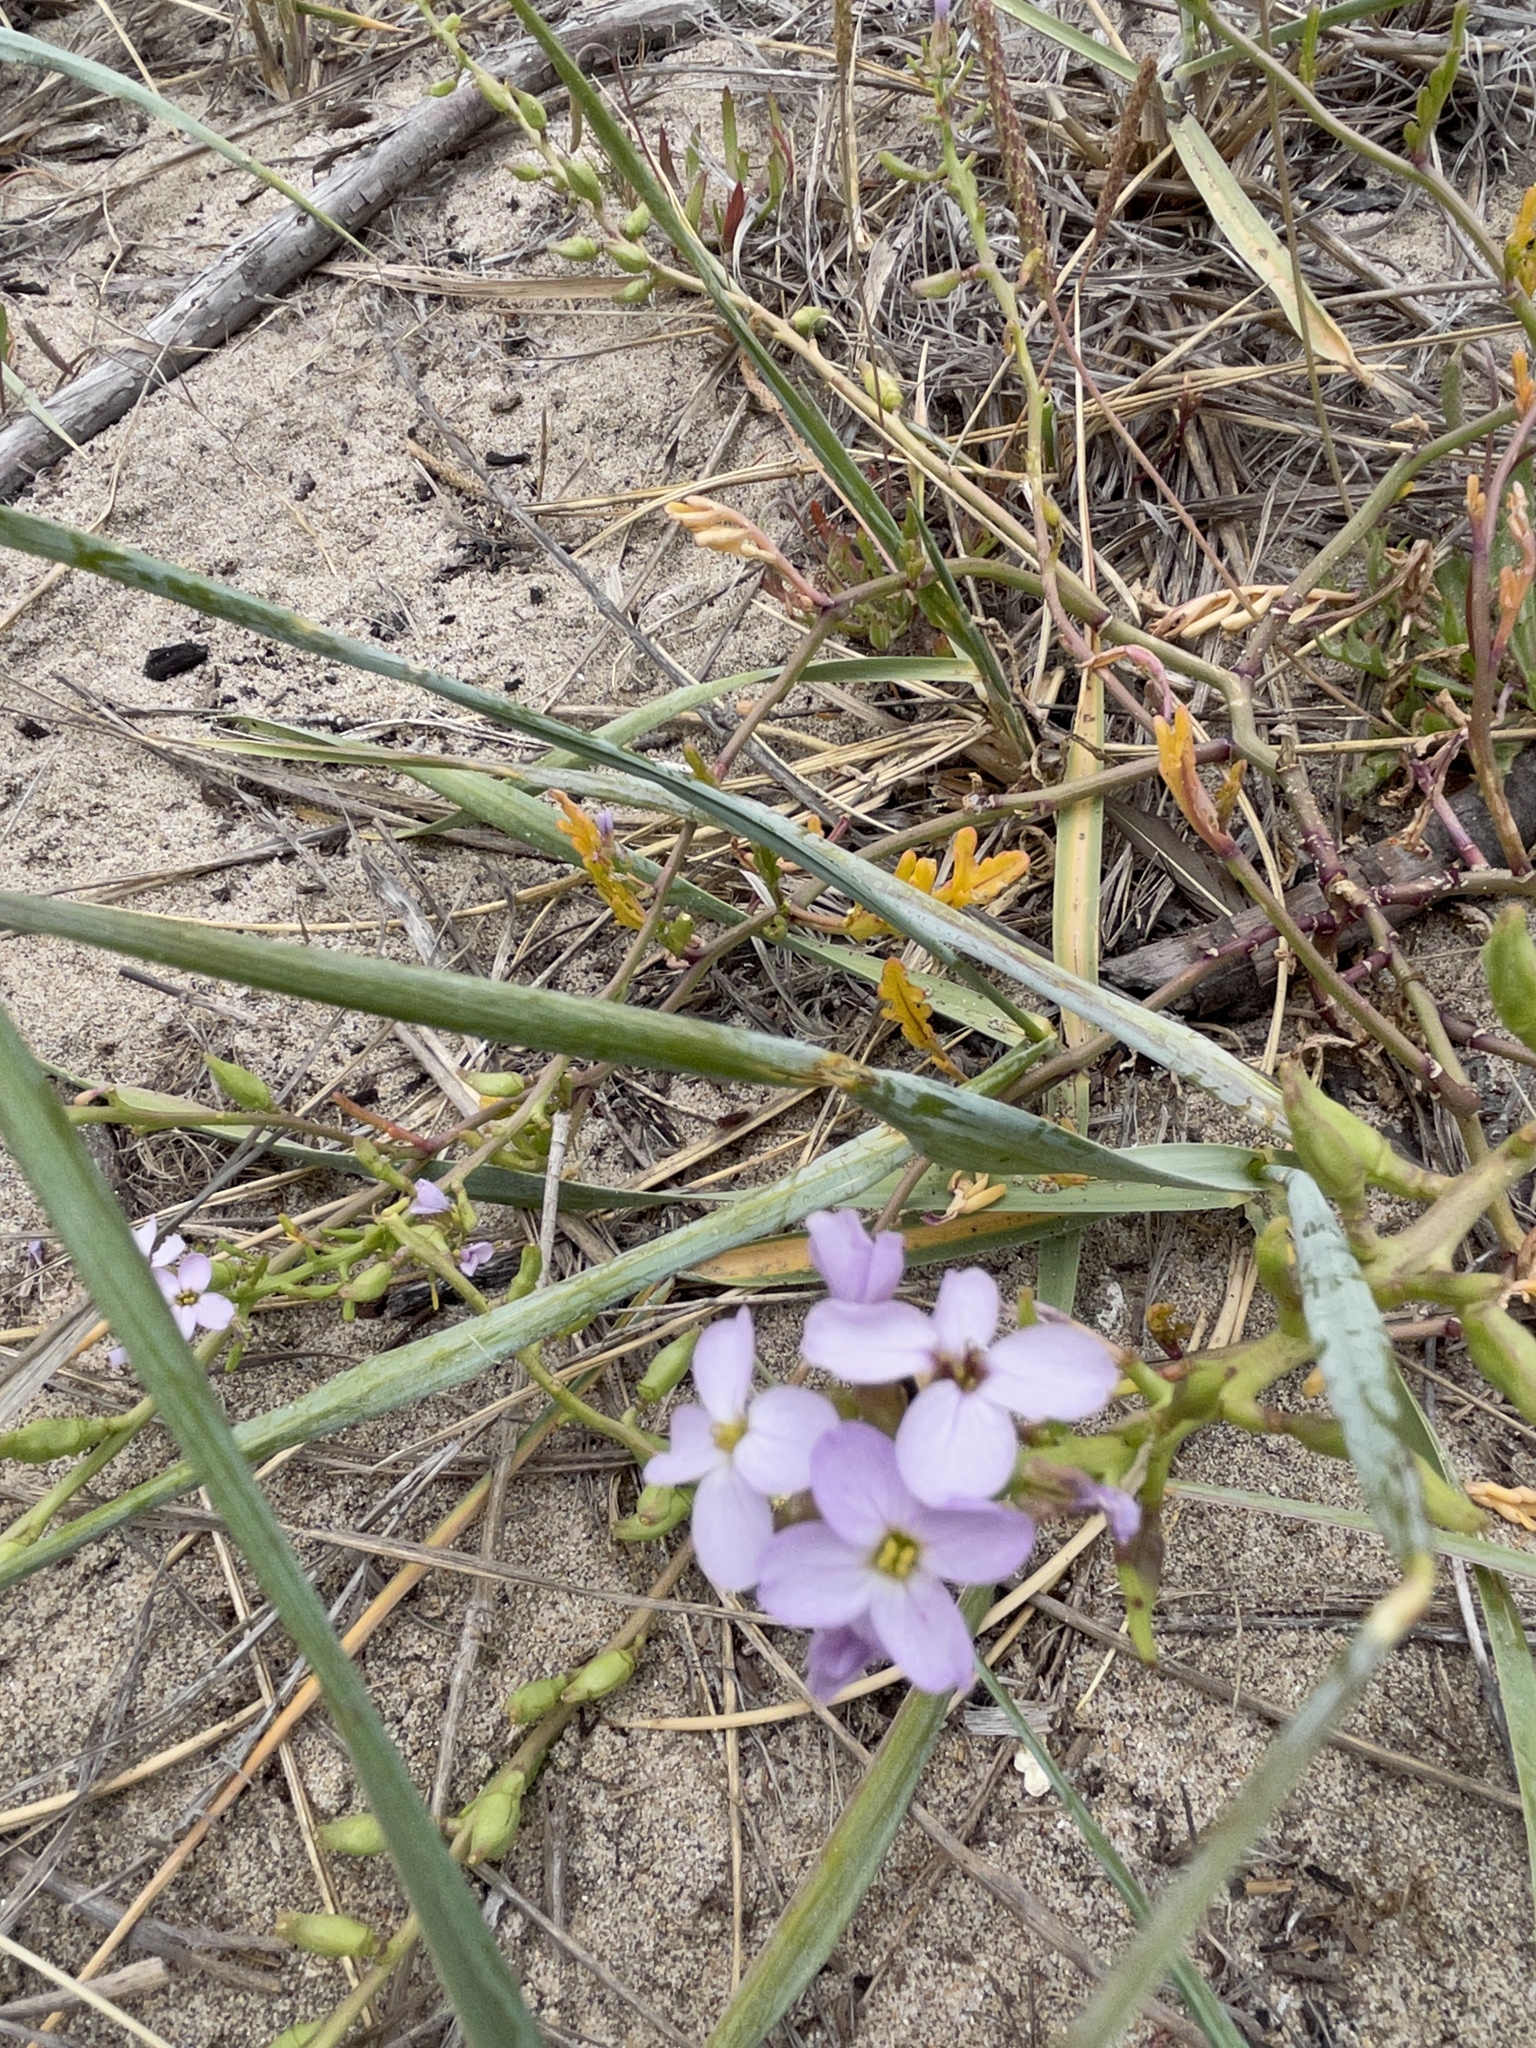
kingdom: Plantae
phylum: Tracheophyta
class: Magnoliopsida
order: Brassicales
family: Brassicaceae
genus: Cakile
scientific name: Cakile maritima
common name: Sea rocket
